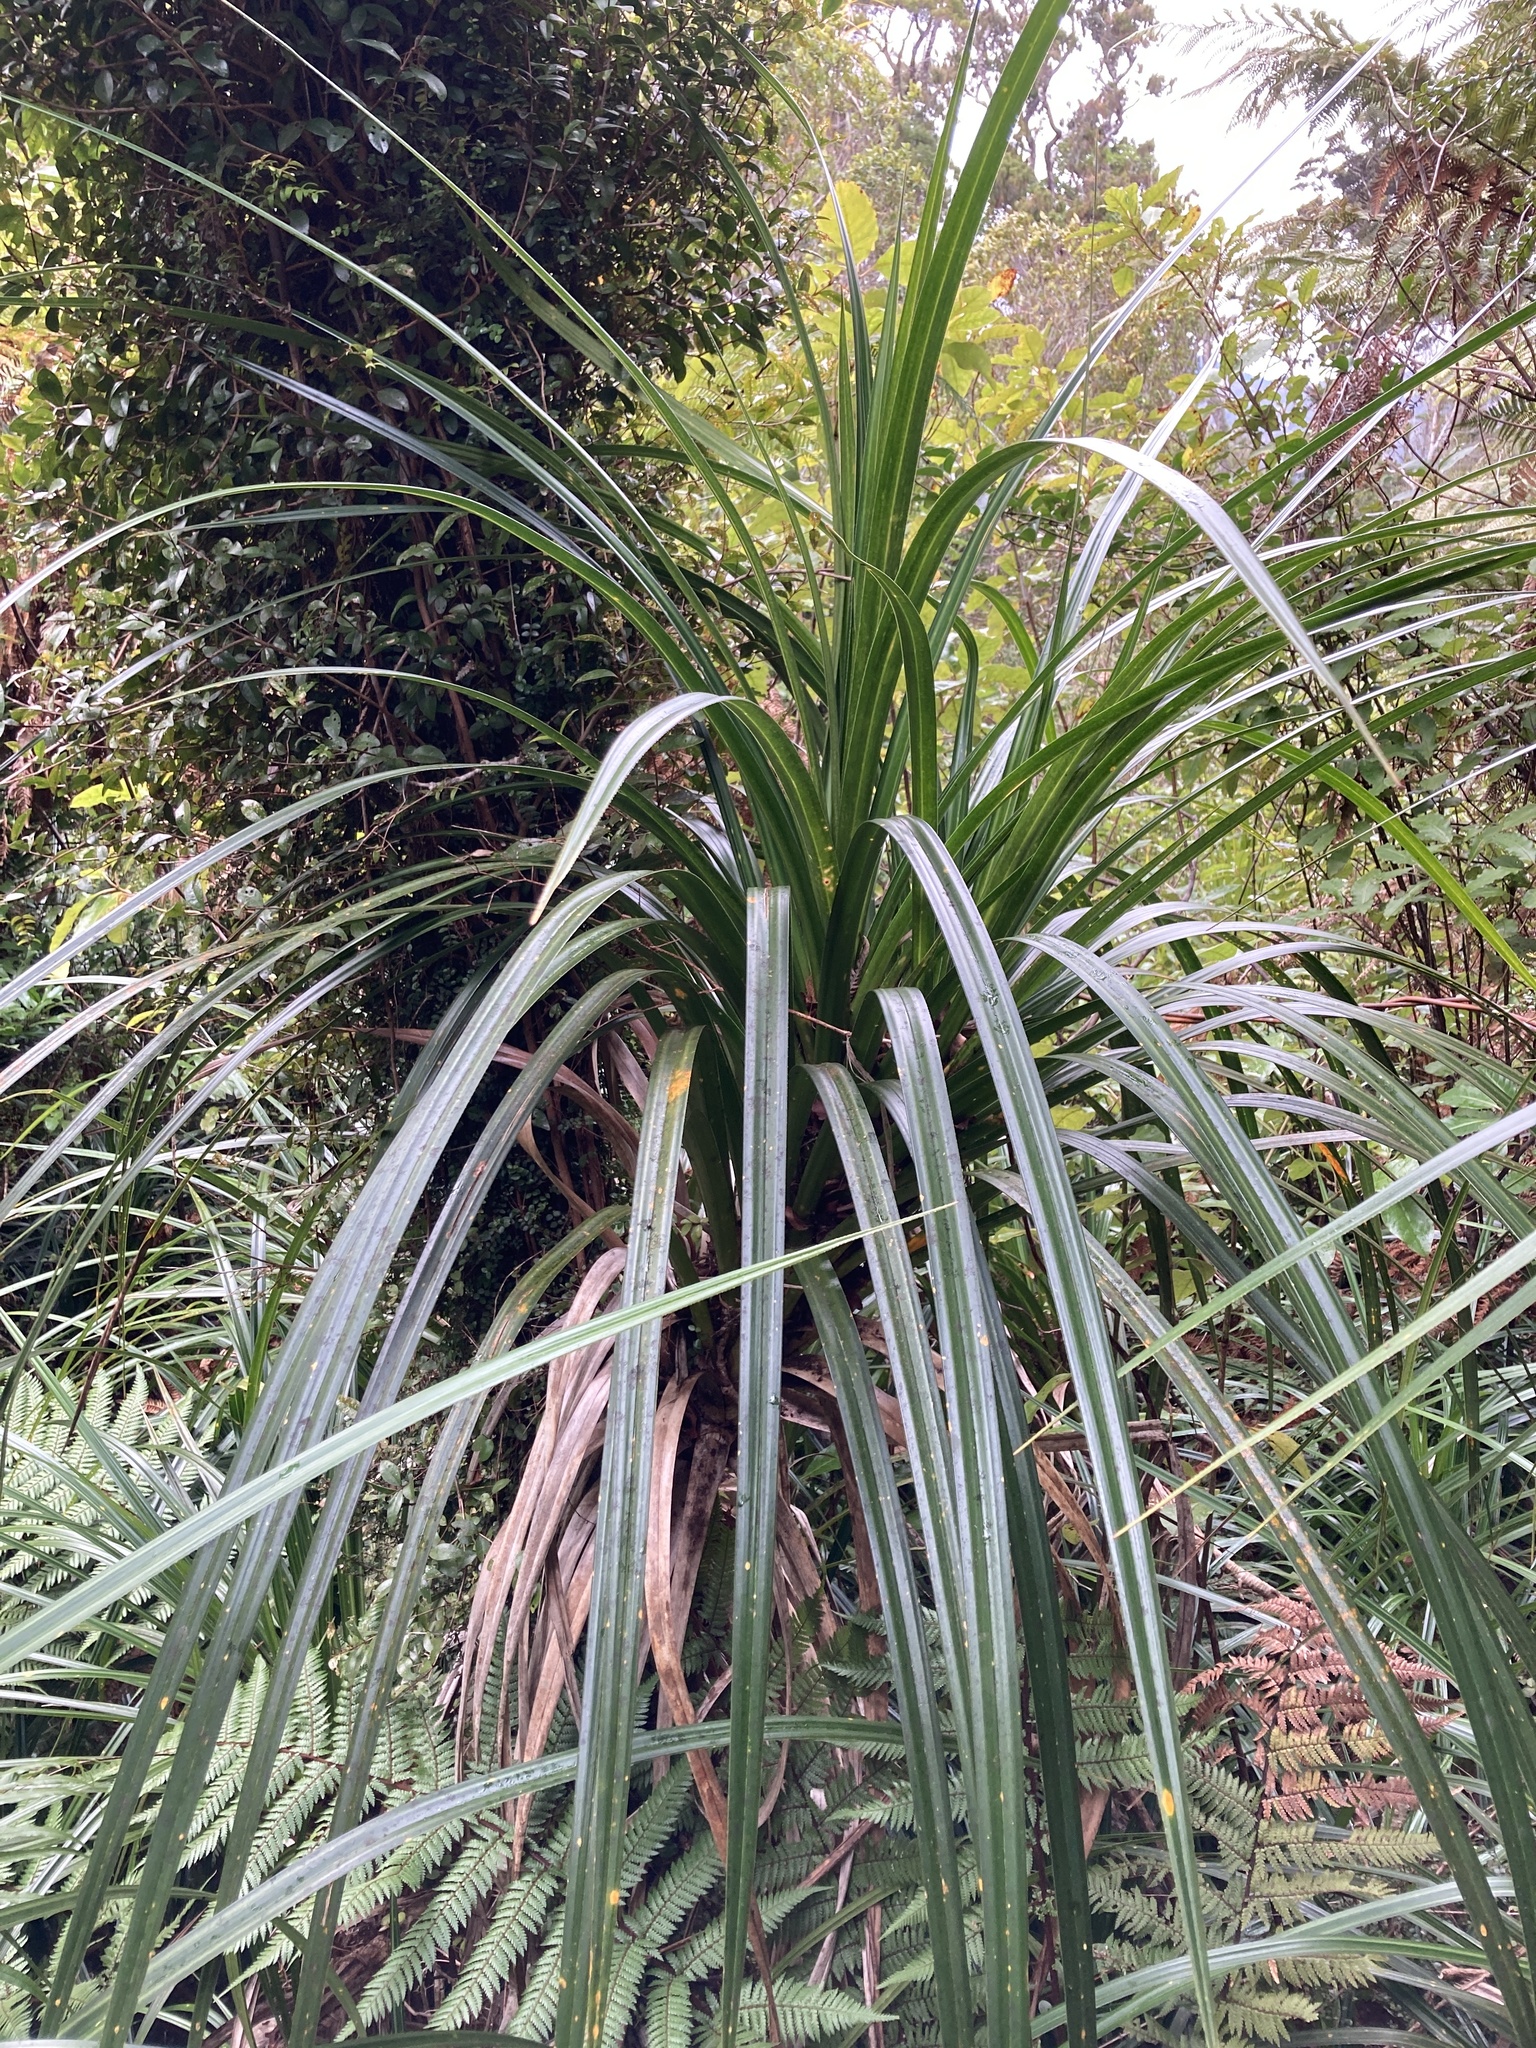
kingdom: Plantae
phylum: Tracheophyta
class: Liliopsida
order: Pandanales
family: Pandanaceae
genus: Freycinetia
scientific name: Freycinetia banksii
